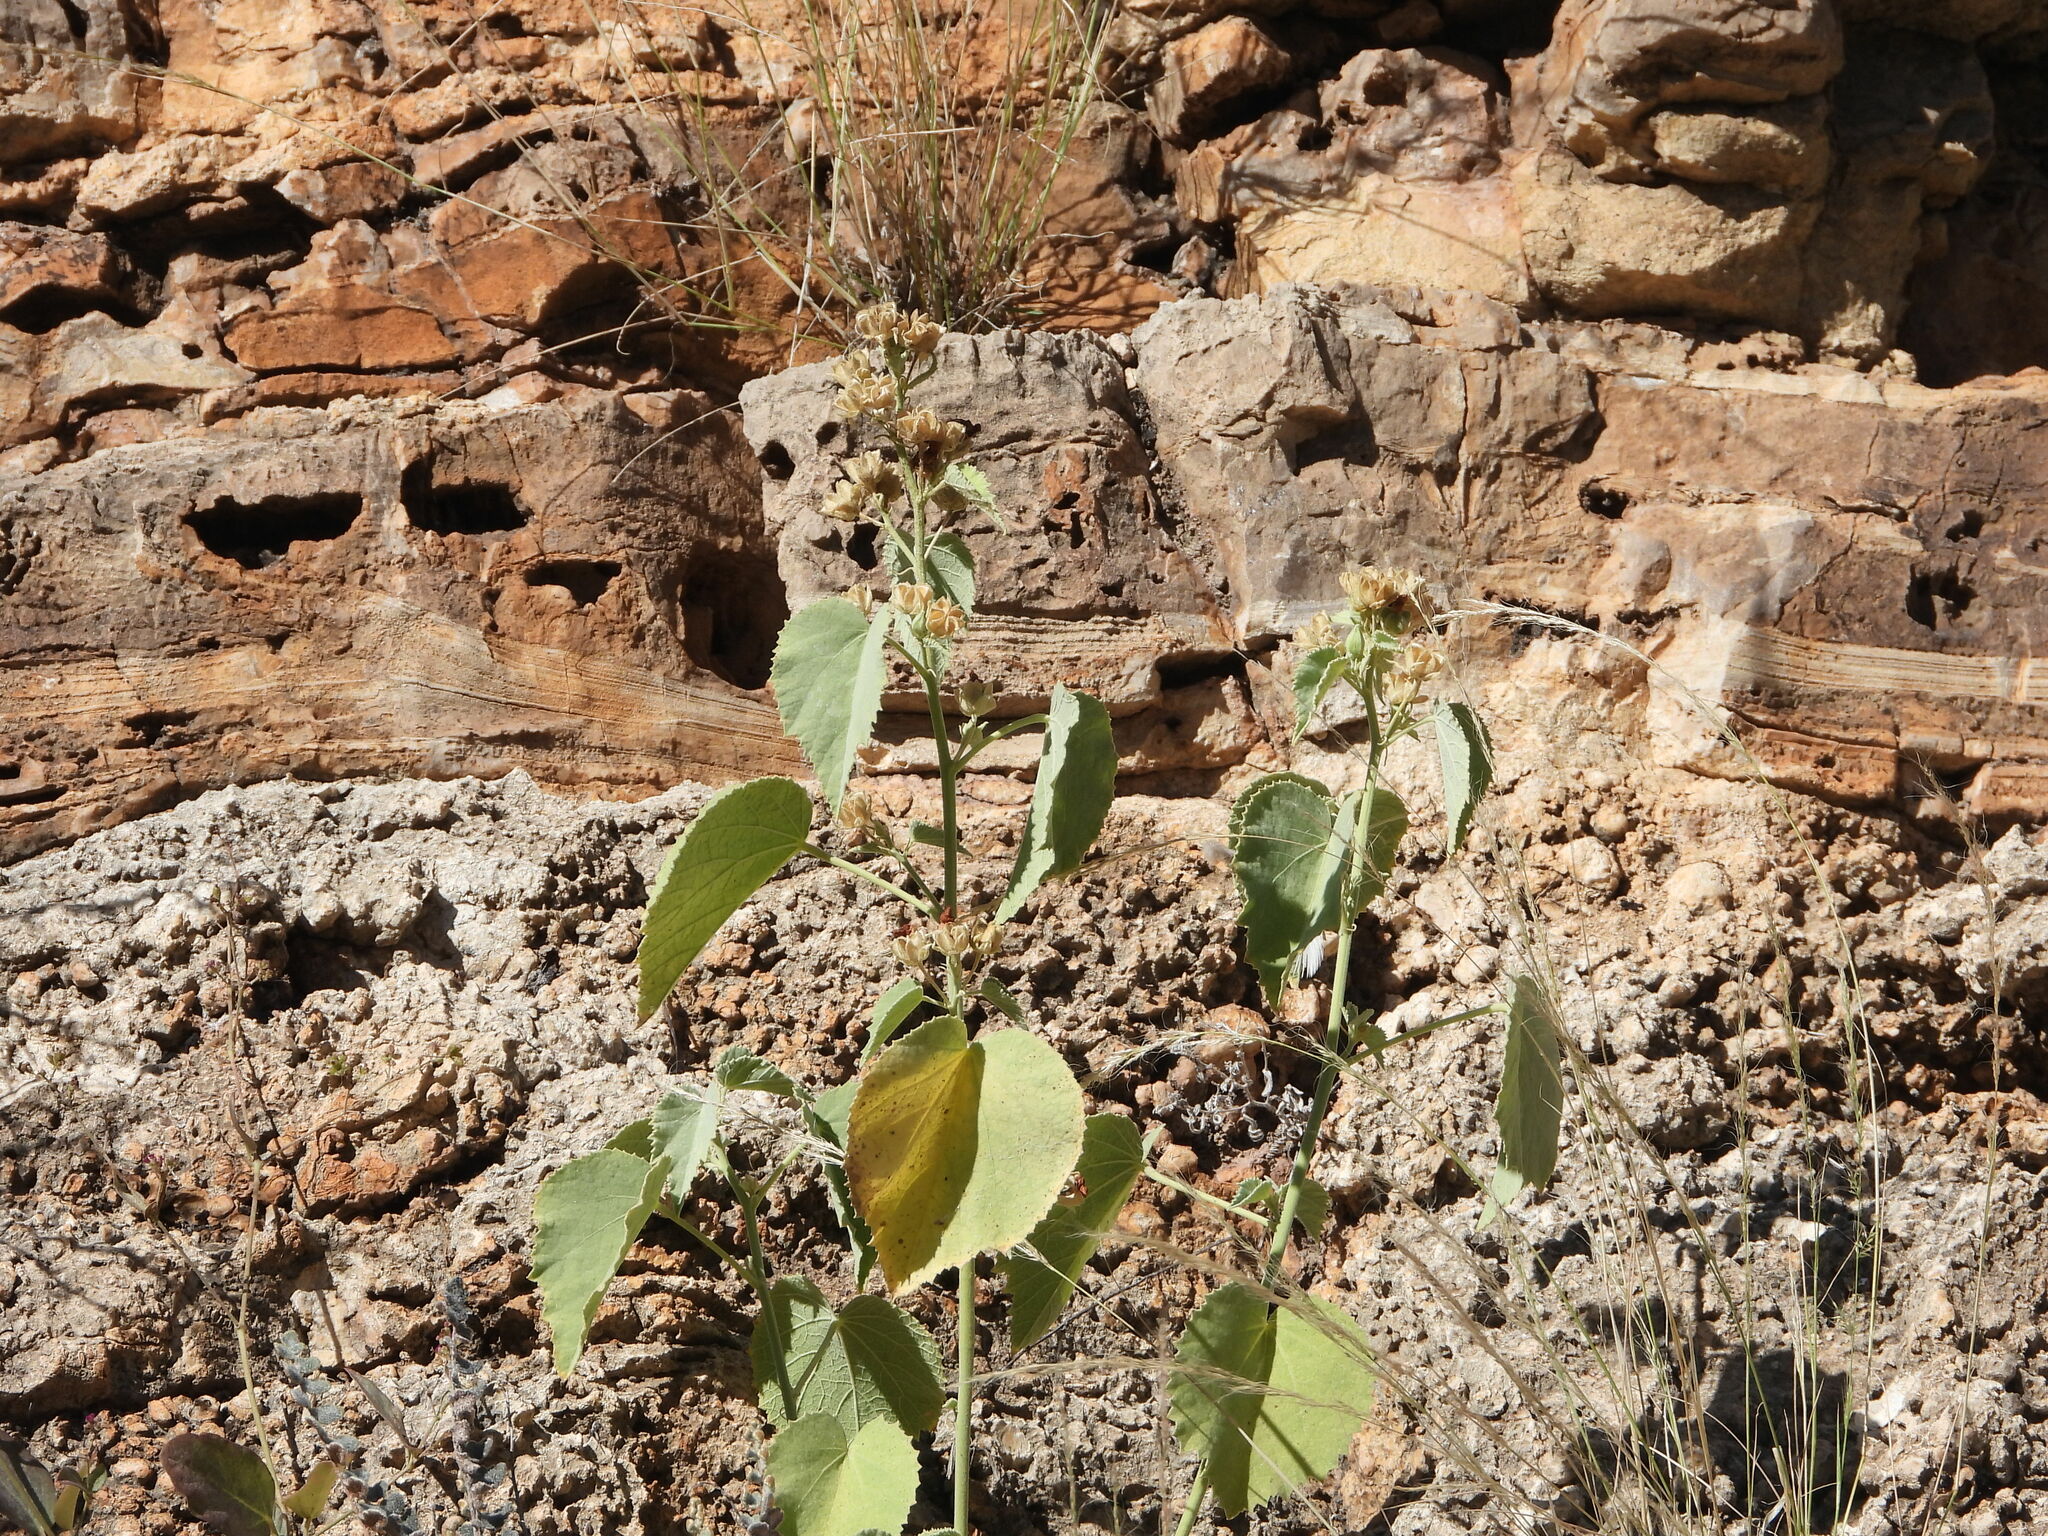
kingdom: Plantae
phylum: Tracheophyta
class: Magnoliopsida
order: Malvales
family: Malvaceae
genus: Abutilon
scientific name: Abutilon malacum
